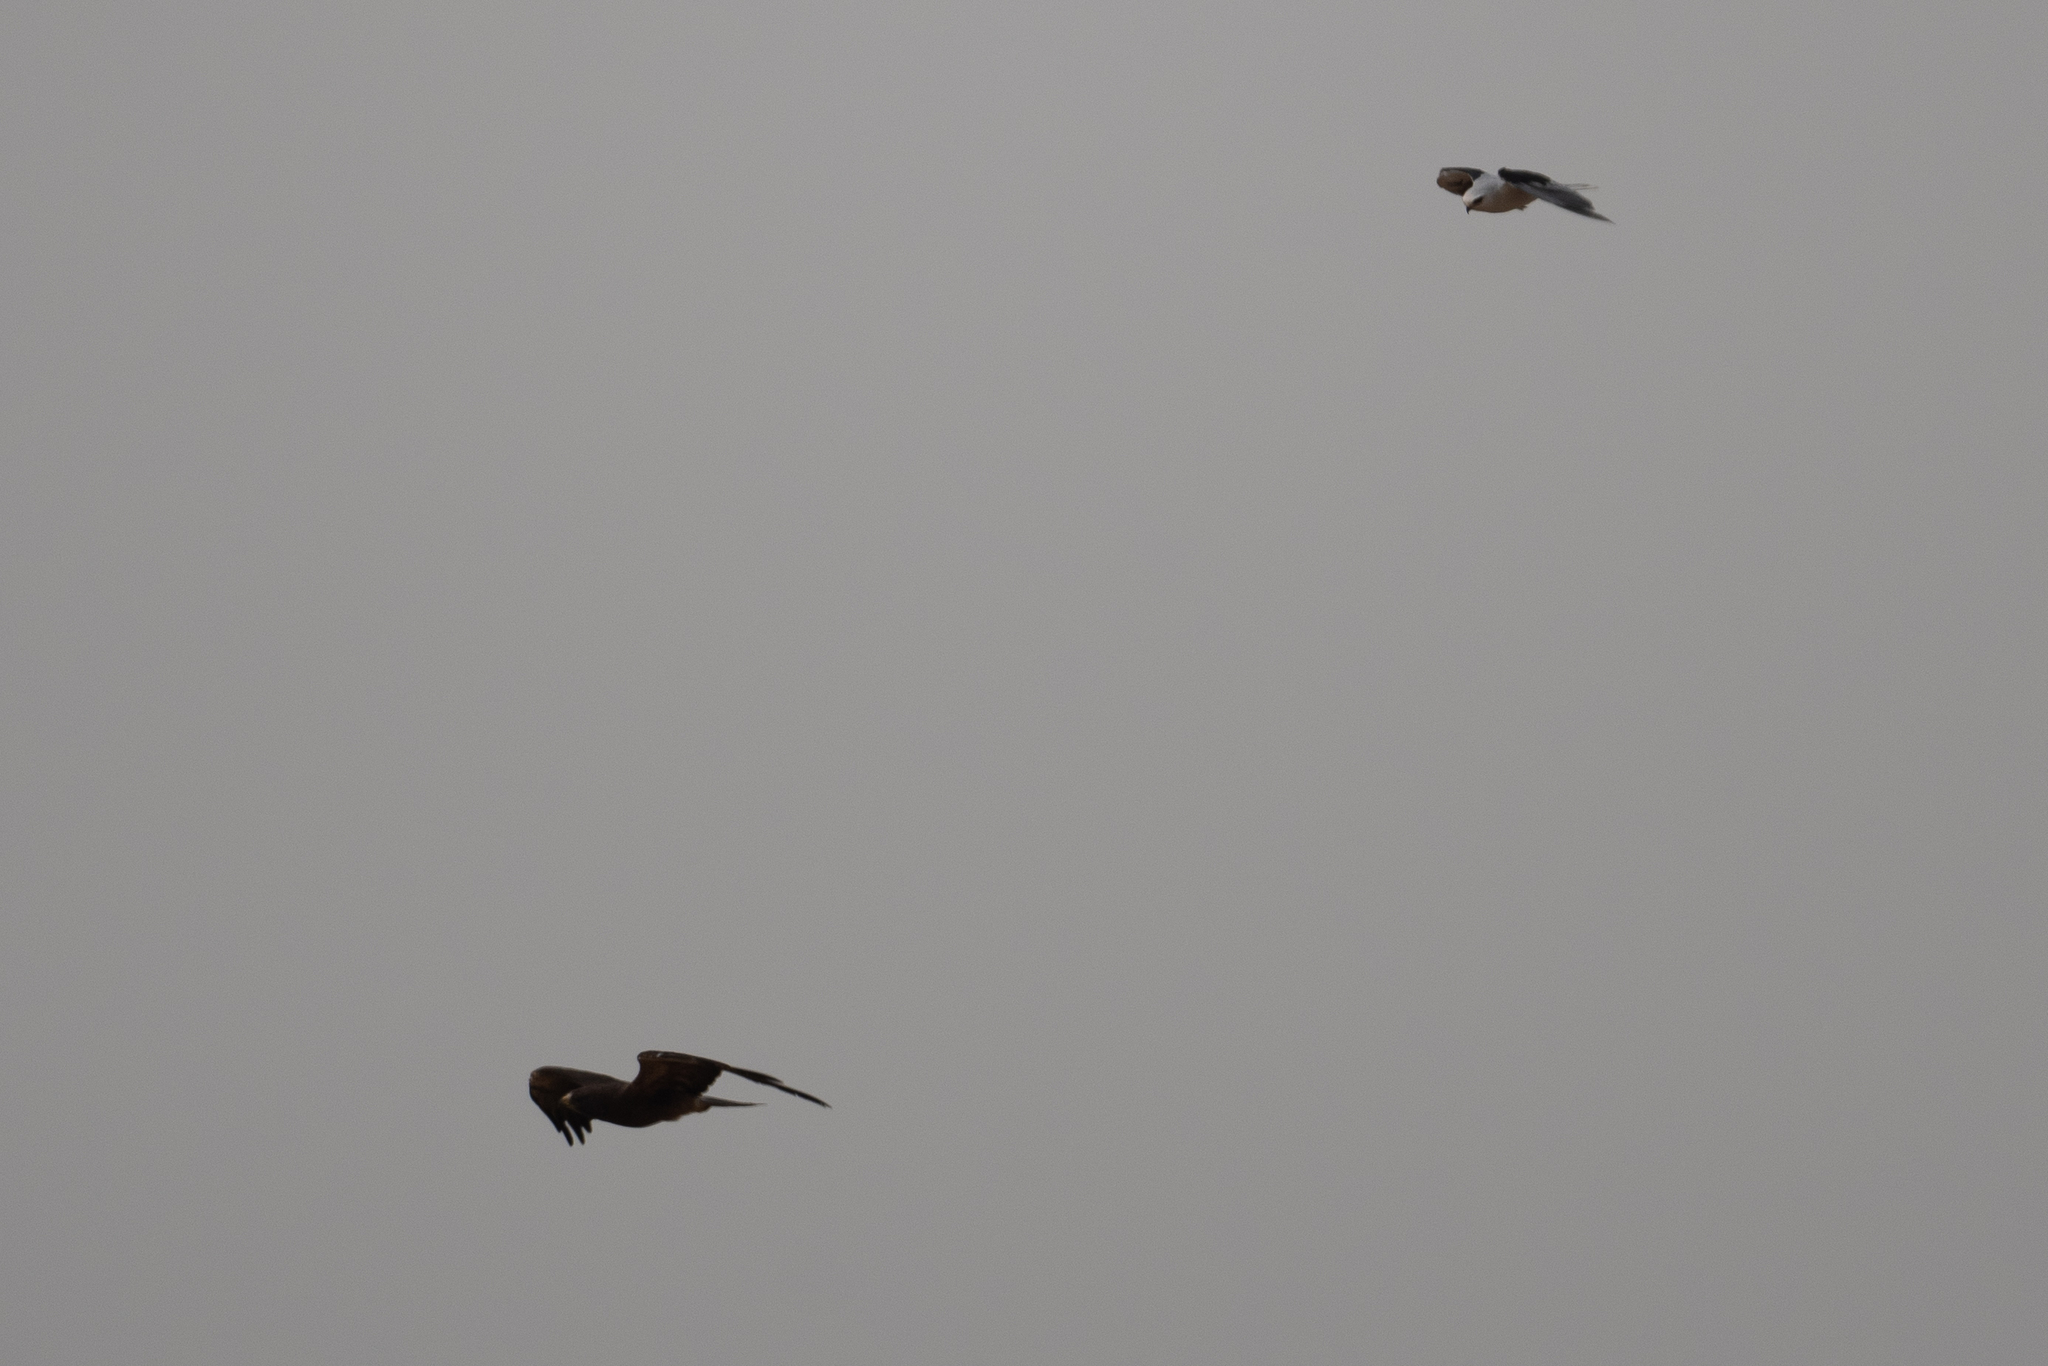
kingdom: Animalia
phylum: Chordata
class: Aves
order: Accipitriformes
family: Accipitridae
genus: Buteo
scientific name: Buteo swainsoni
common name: Swainson's hawk
